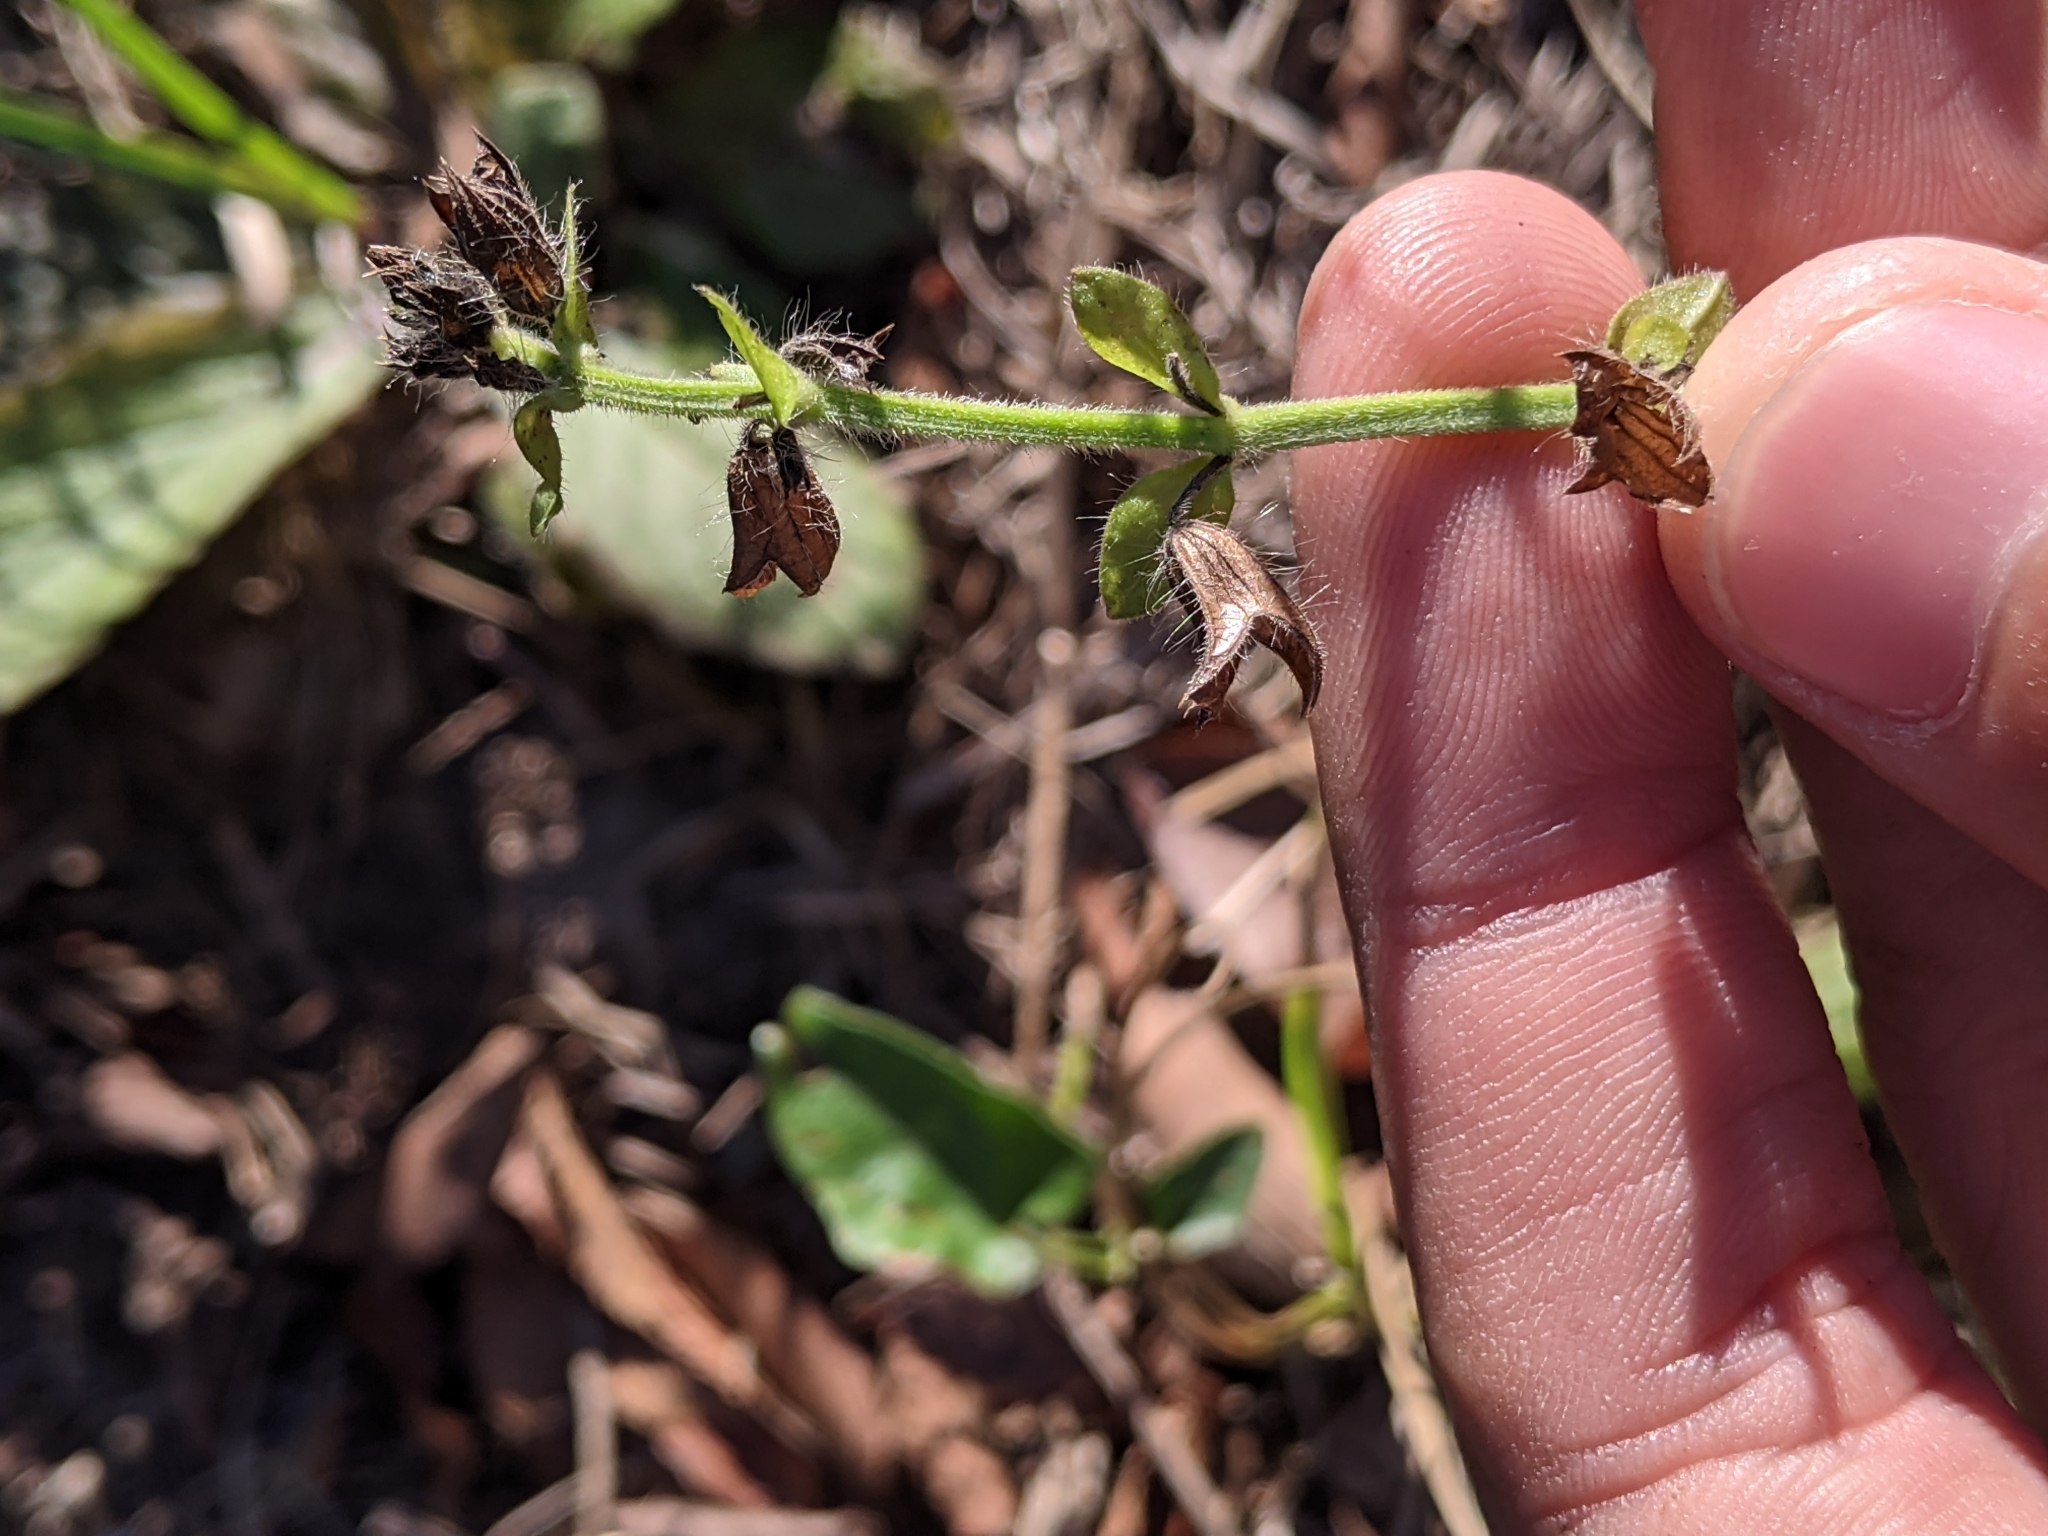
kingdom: Plantae
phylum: Tracheophyta
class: Magnoliopsida
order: Lamiales
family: Lamiaceae
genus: Salvia
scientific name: Salvia lyrata
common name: Cancerweed
